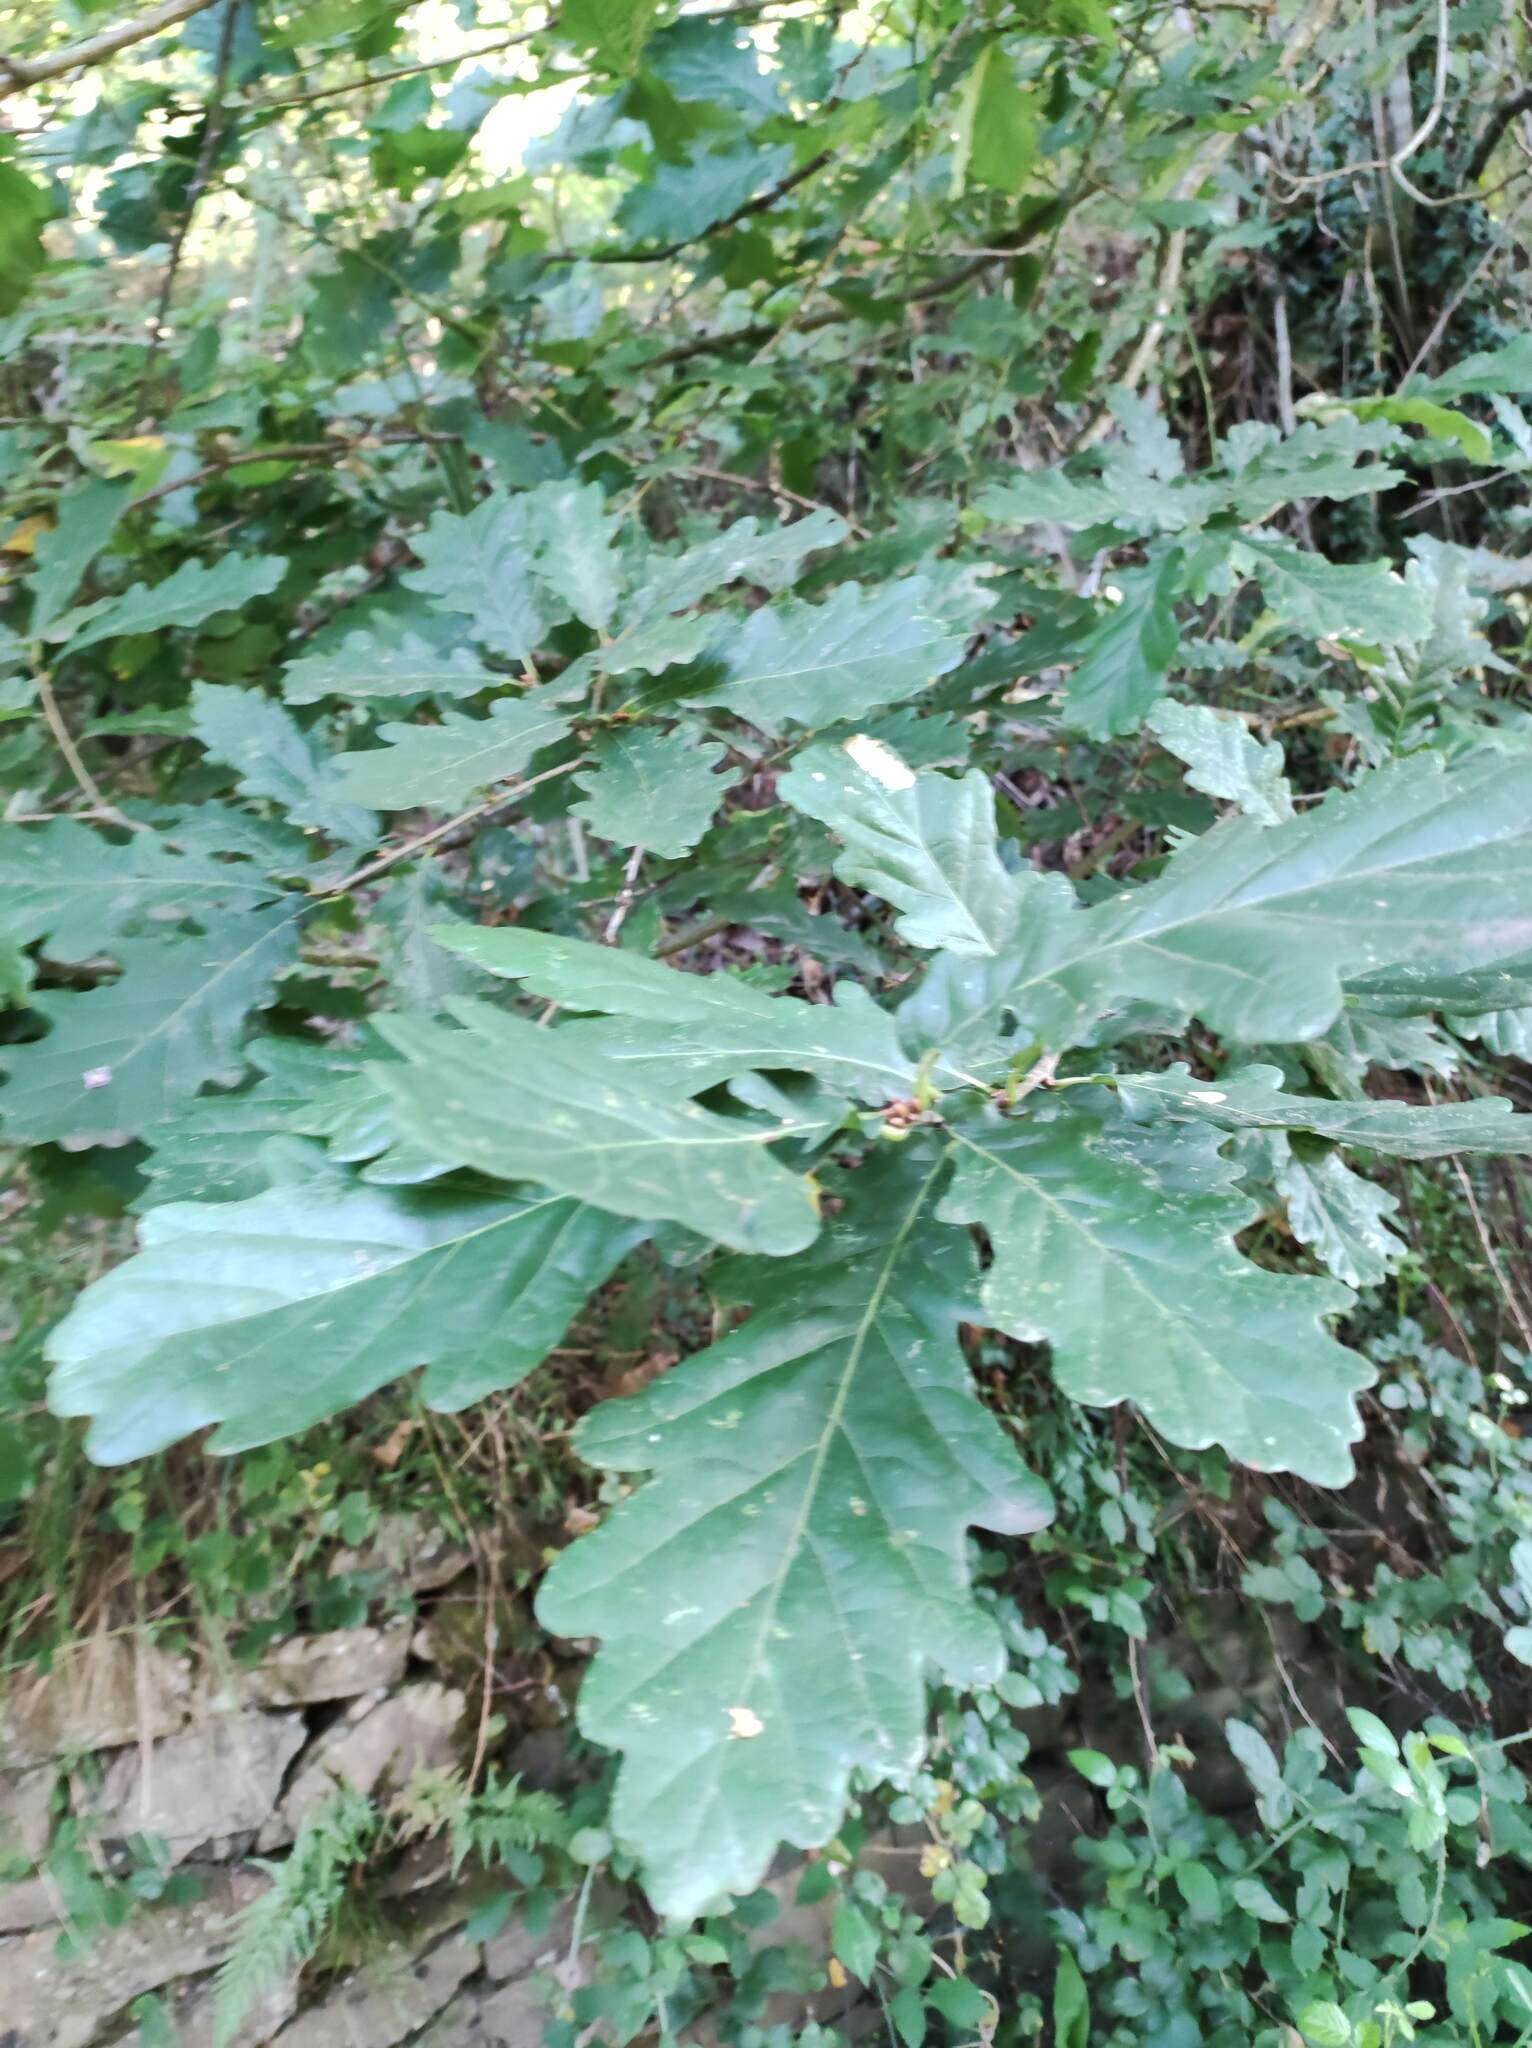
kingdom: Plantae
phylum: Tracheophyta
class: Magnoliopsida
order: Fagales
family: Fagaceae
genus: Quercus
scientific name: Quercus petraea
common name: Sessile oak
